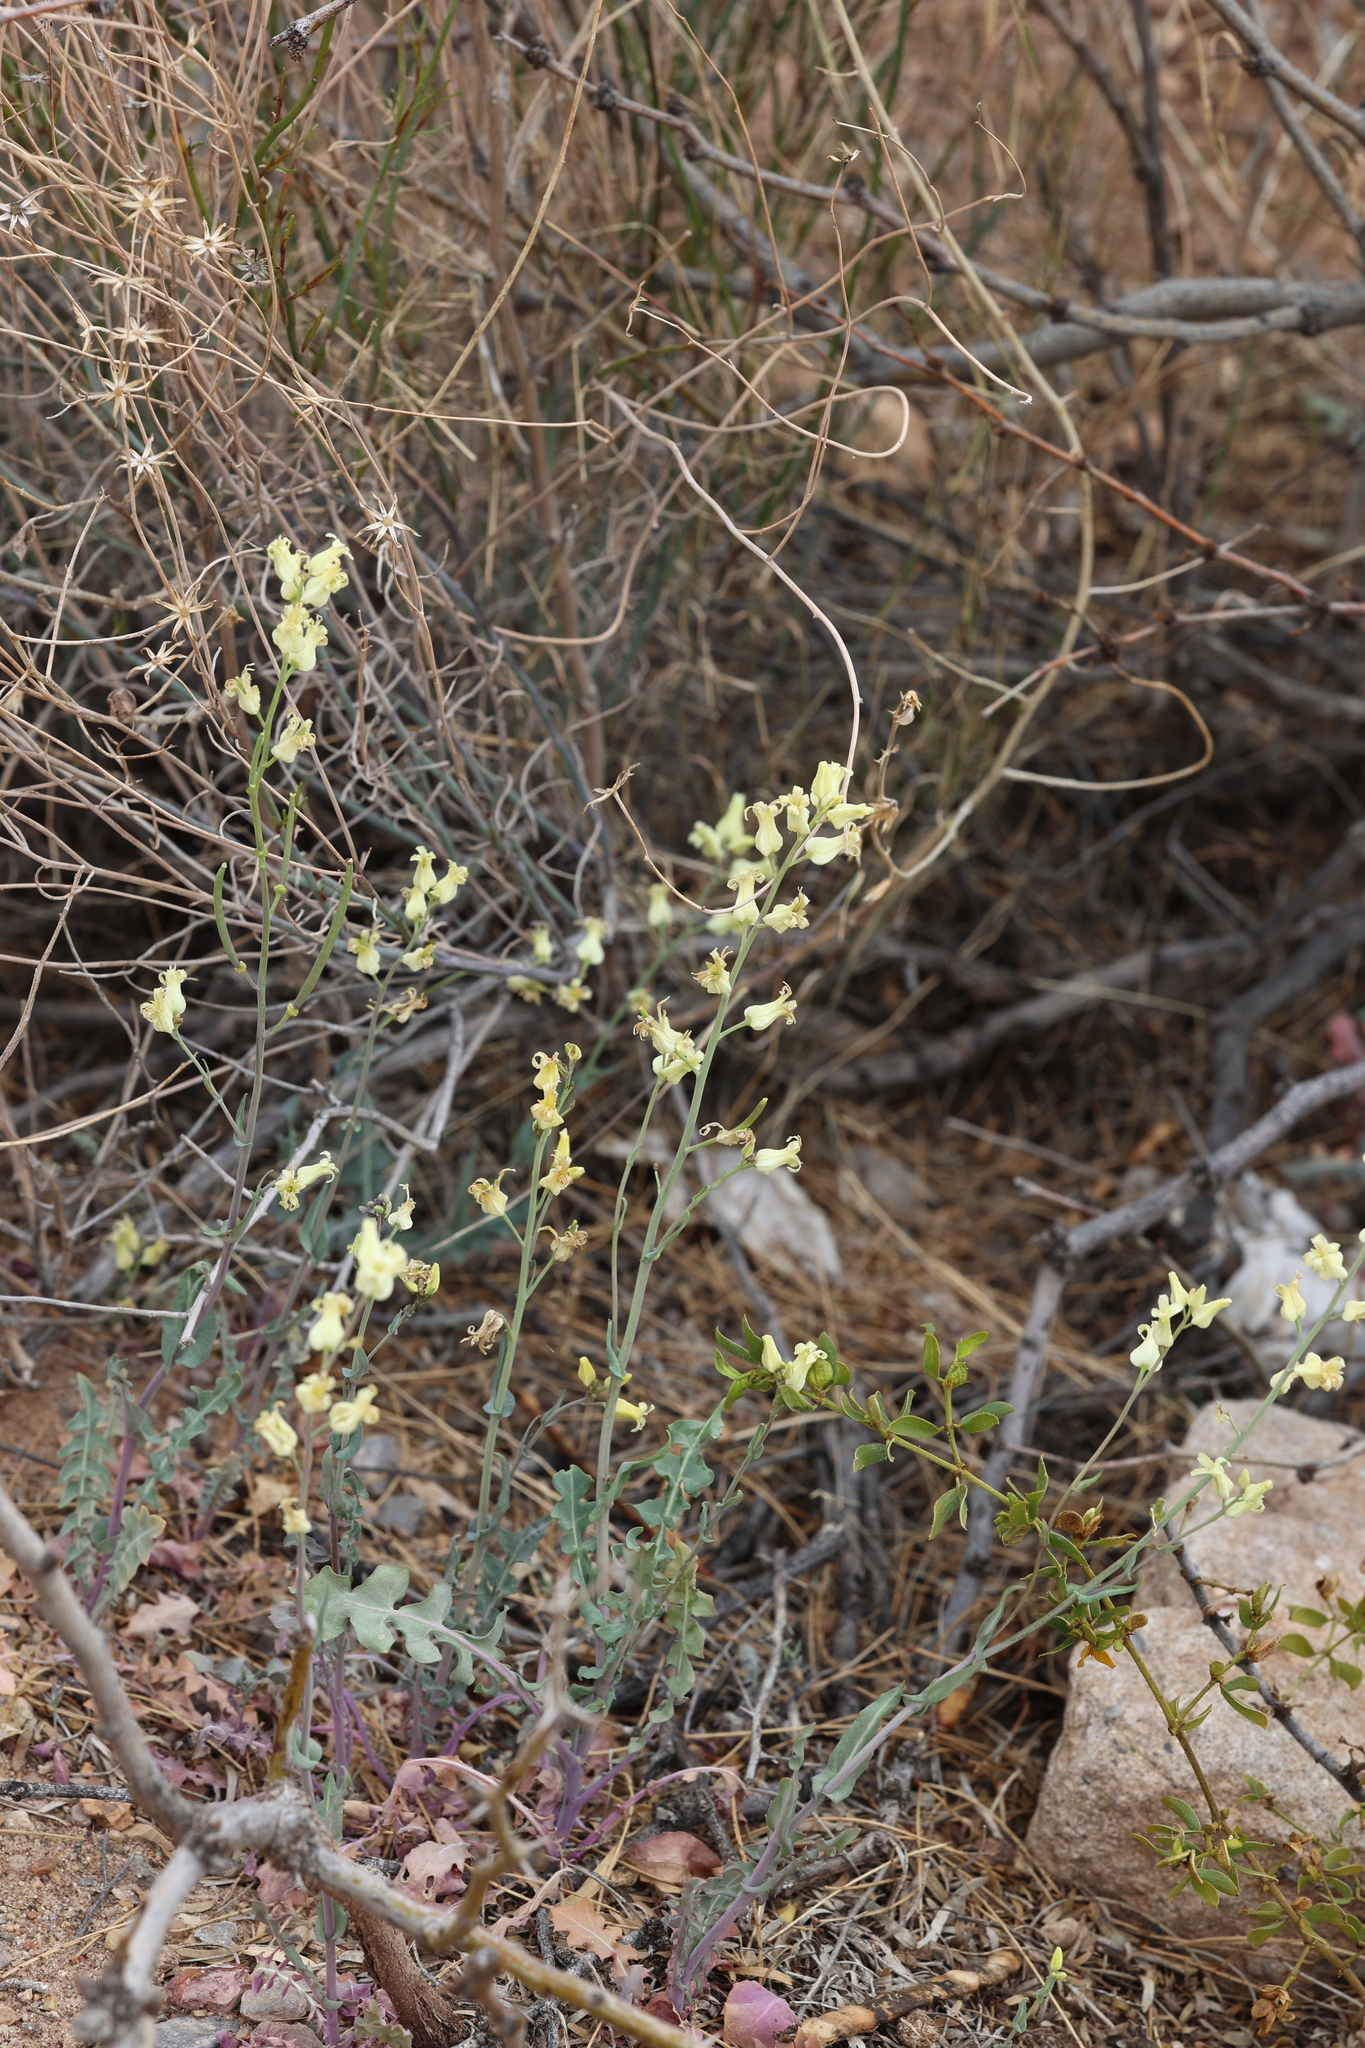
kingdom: Plantae
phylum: Tracheophyta
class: Magnoliopsida
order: Brassicales
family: Brassicaceae
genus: Streptanthus
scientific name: Streptanthus carinatus
